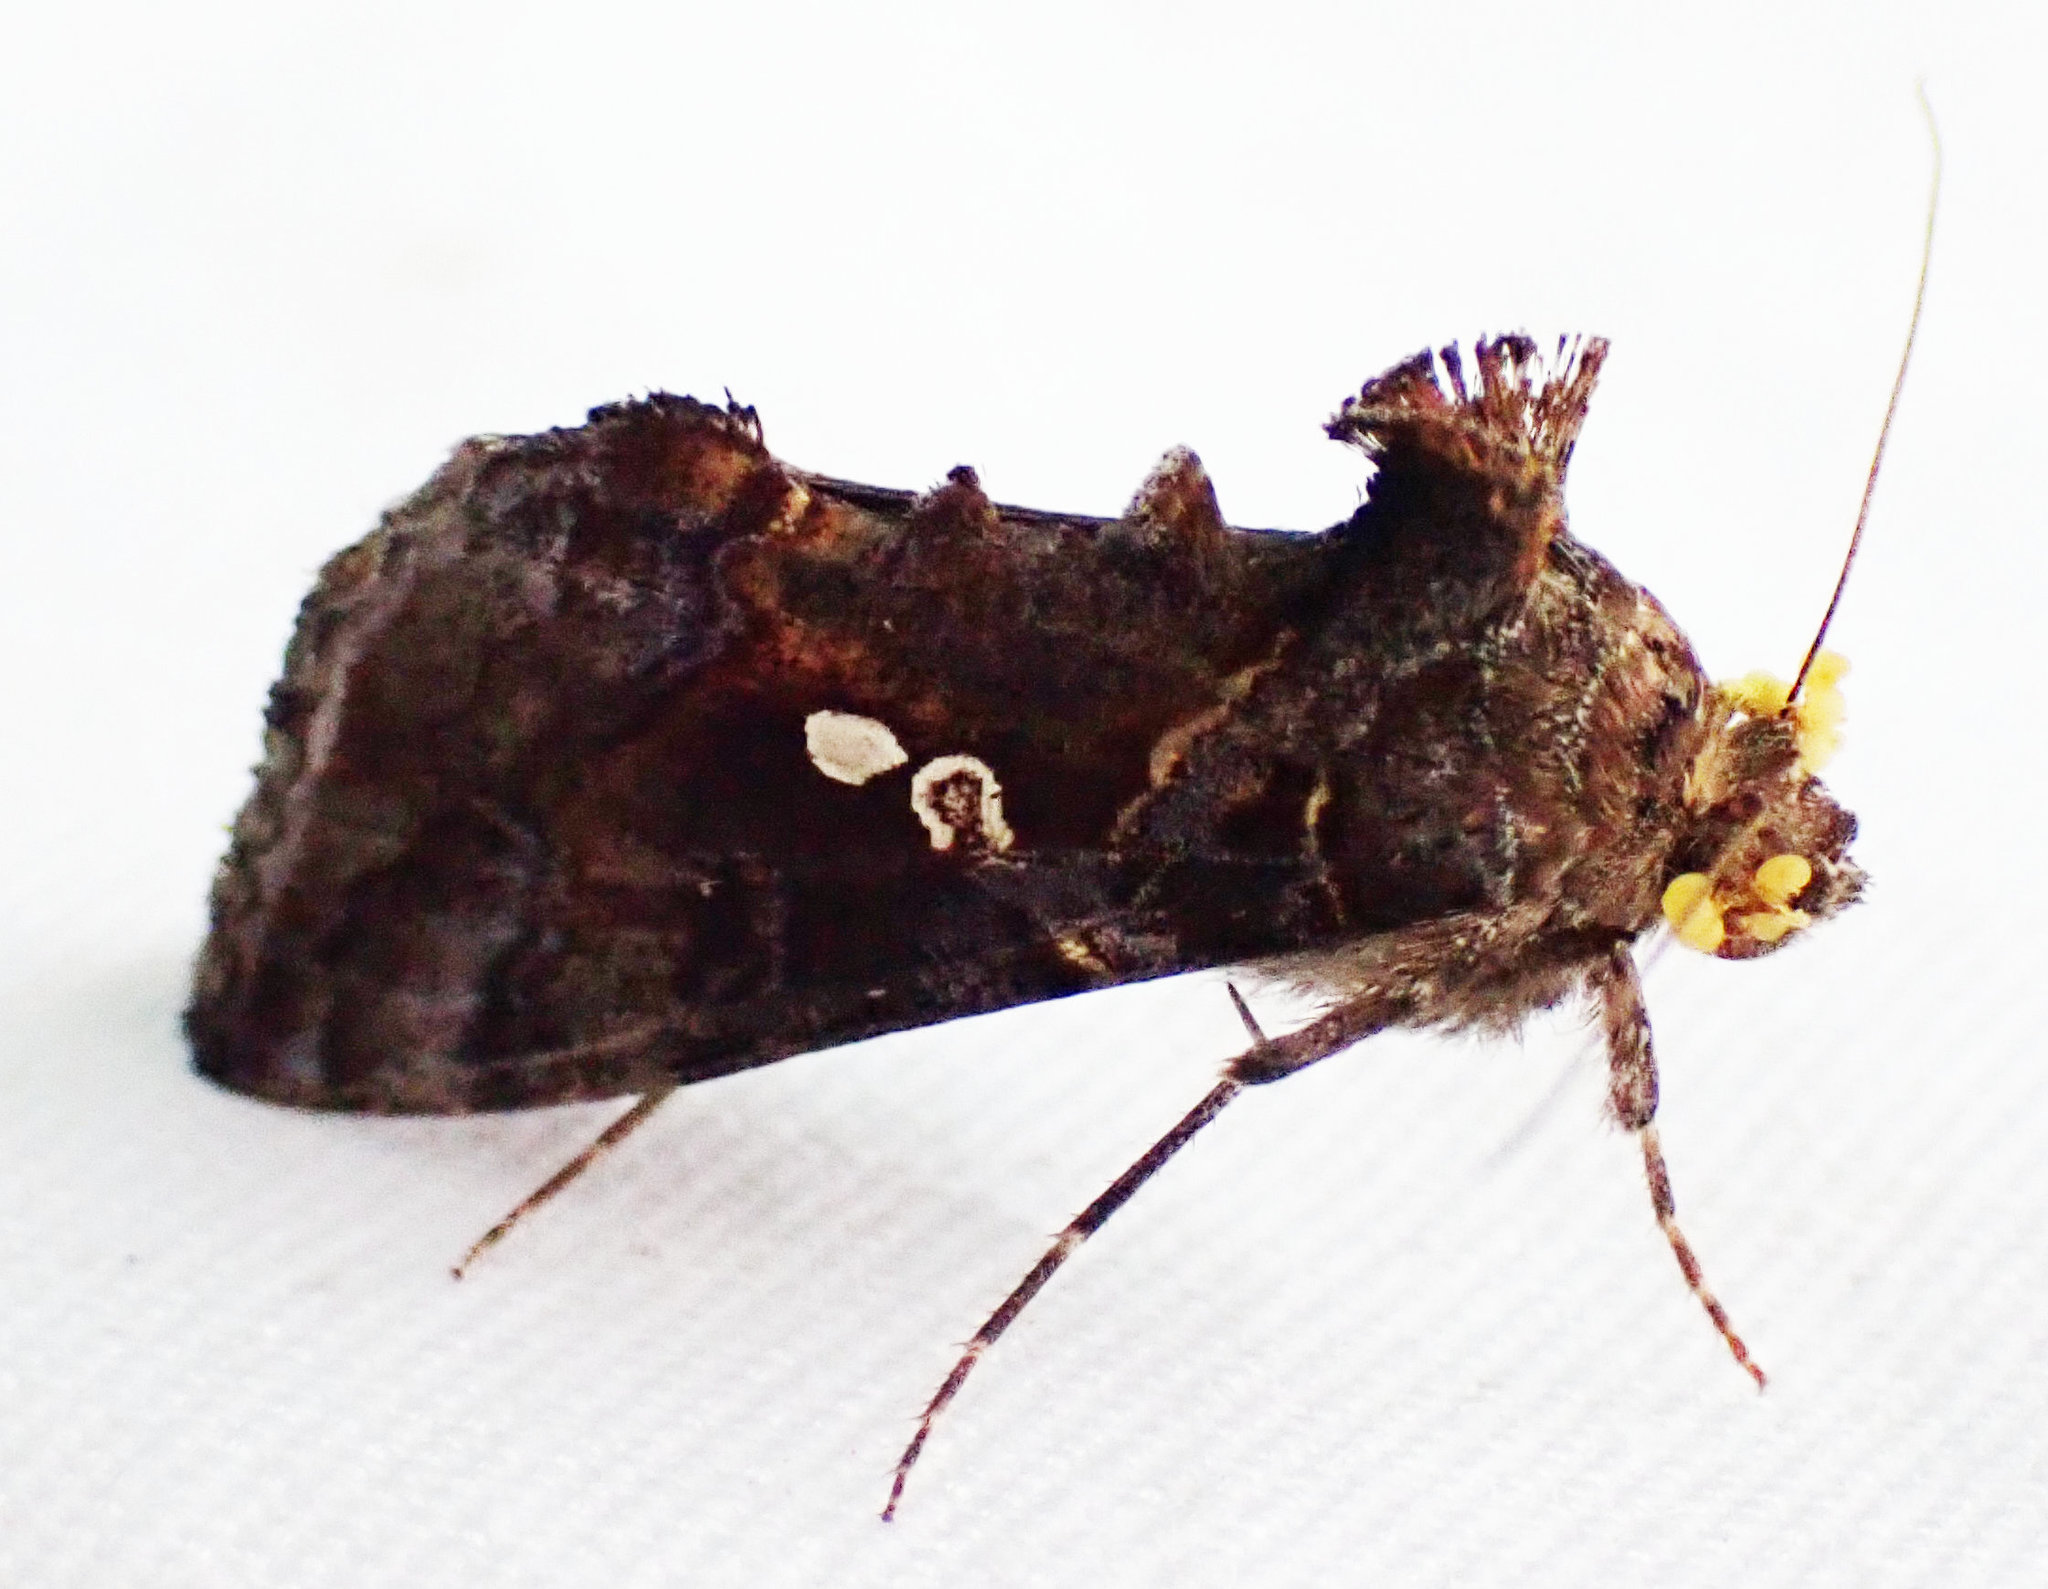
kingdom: Animalia
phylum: Arthropoda
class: Insecta
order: Lepidoptera
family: Noctuidae
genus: Chrysodeixis
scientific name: Chrysodeixis includens
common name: Cutworm moth
